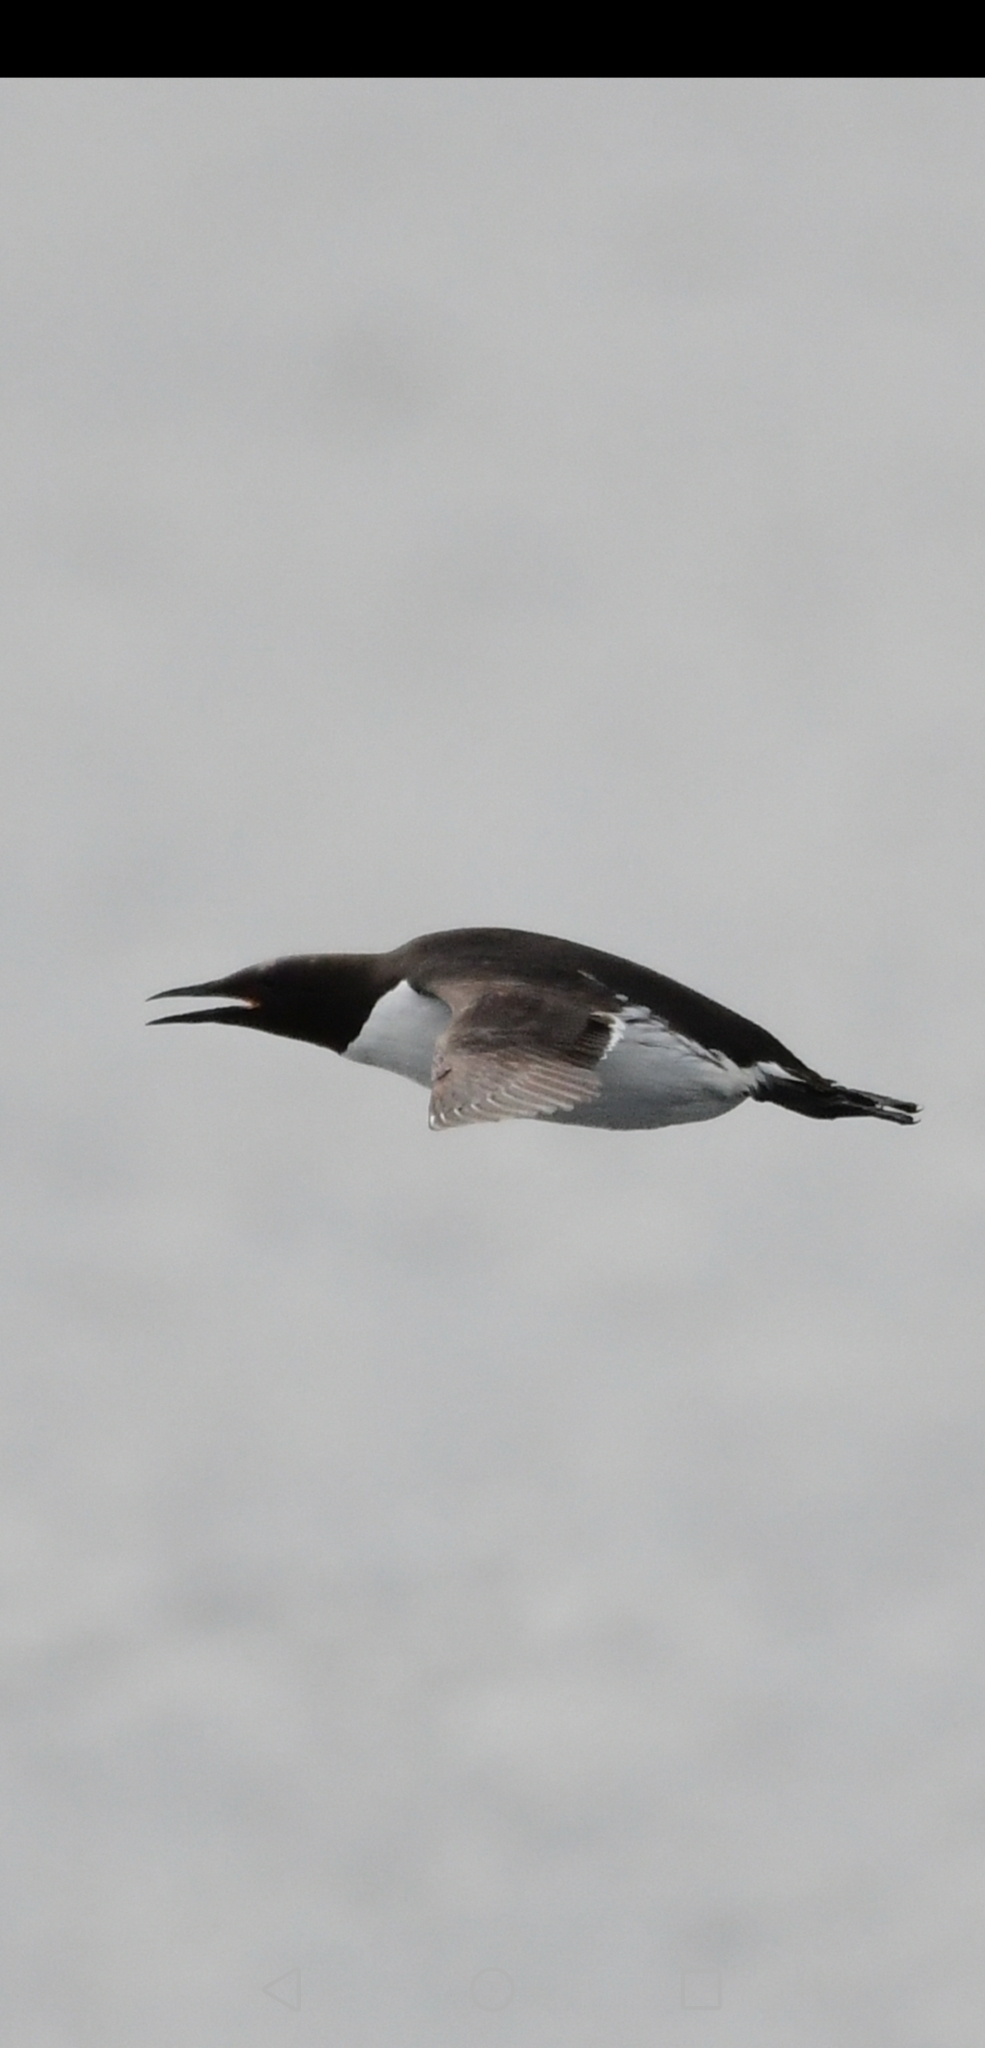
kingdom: Animalia
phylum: Chordata
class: Aves
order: Charadriiformes
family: Alcidae
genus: Uria
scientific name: Uria aalge
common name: Common murre
